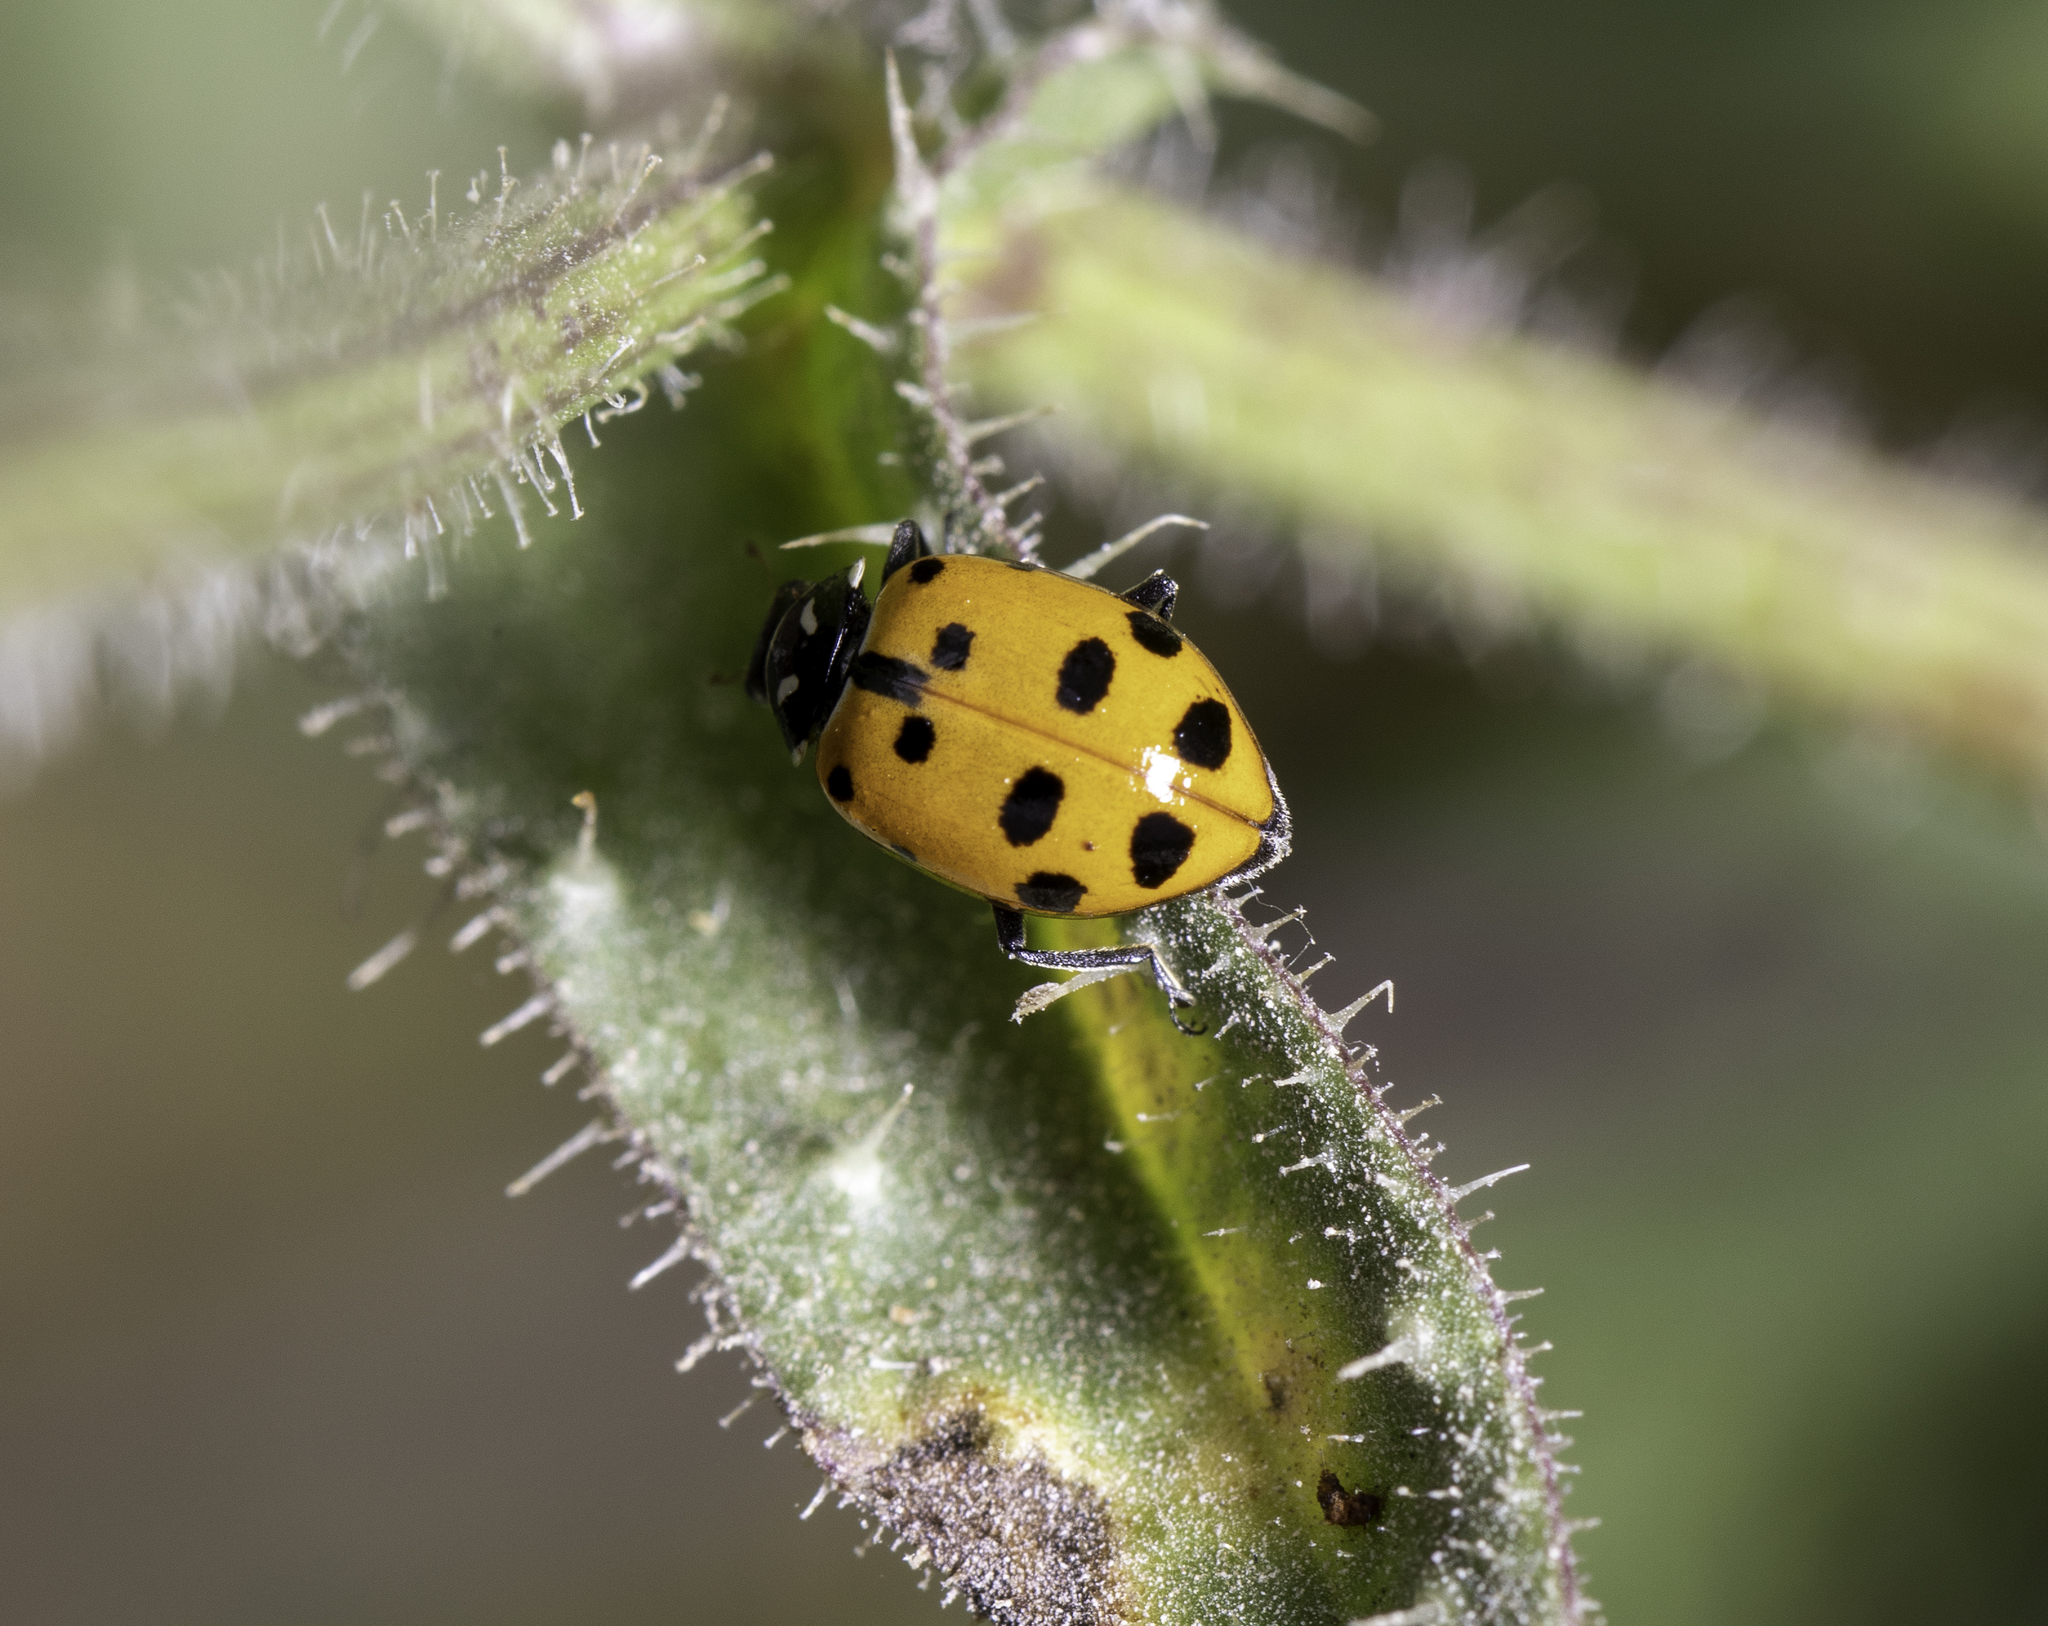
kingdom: Animalia
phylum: Arthropoda
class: Insecta
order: Coleoptera
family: Coccinellidae
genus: Hippodamia
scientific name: Hippodamia convergens
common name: Convergent lady beetle
